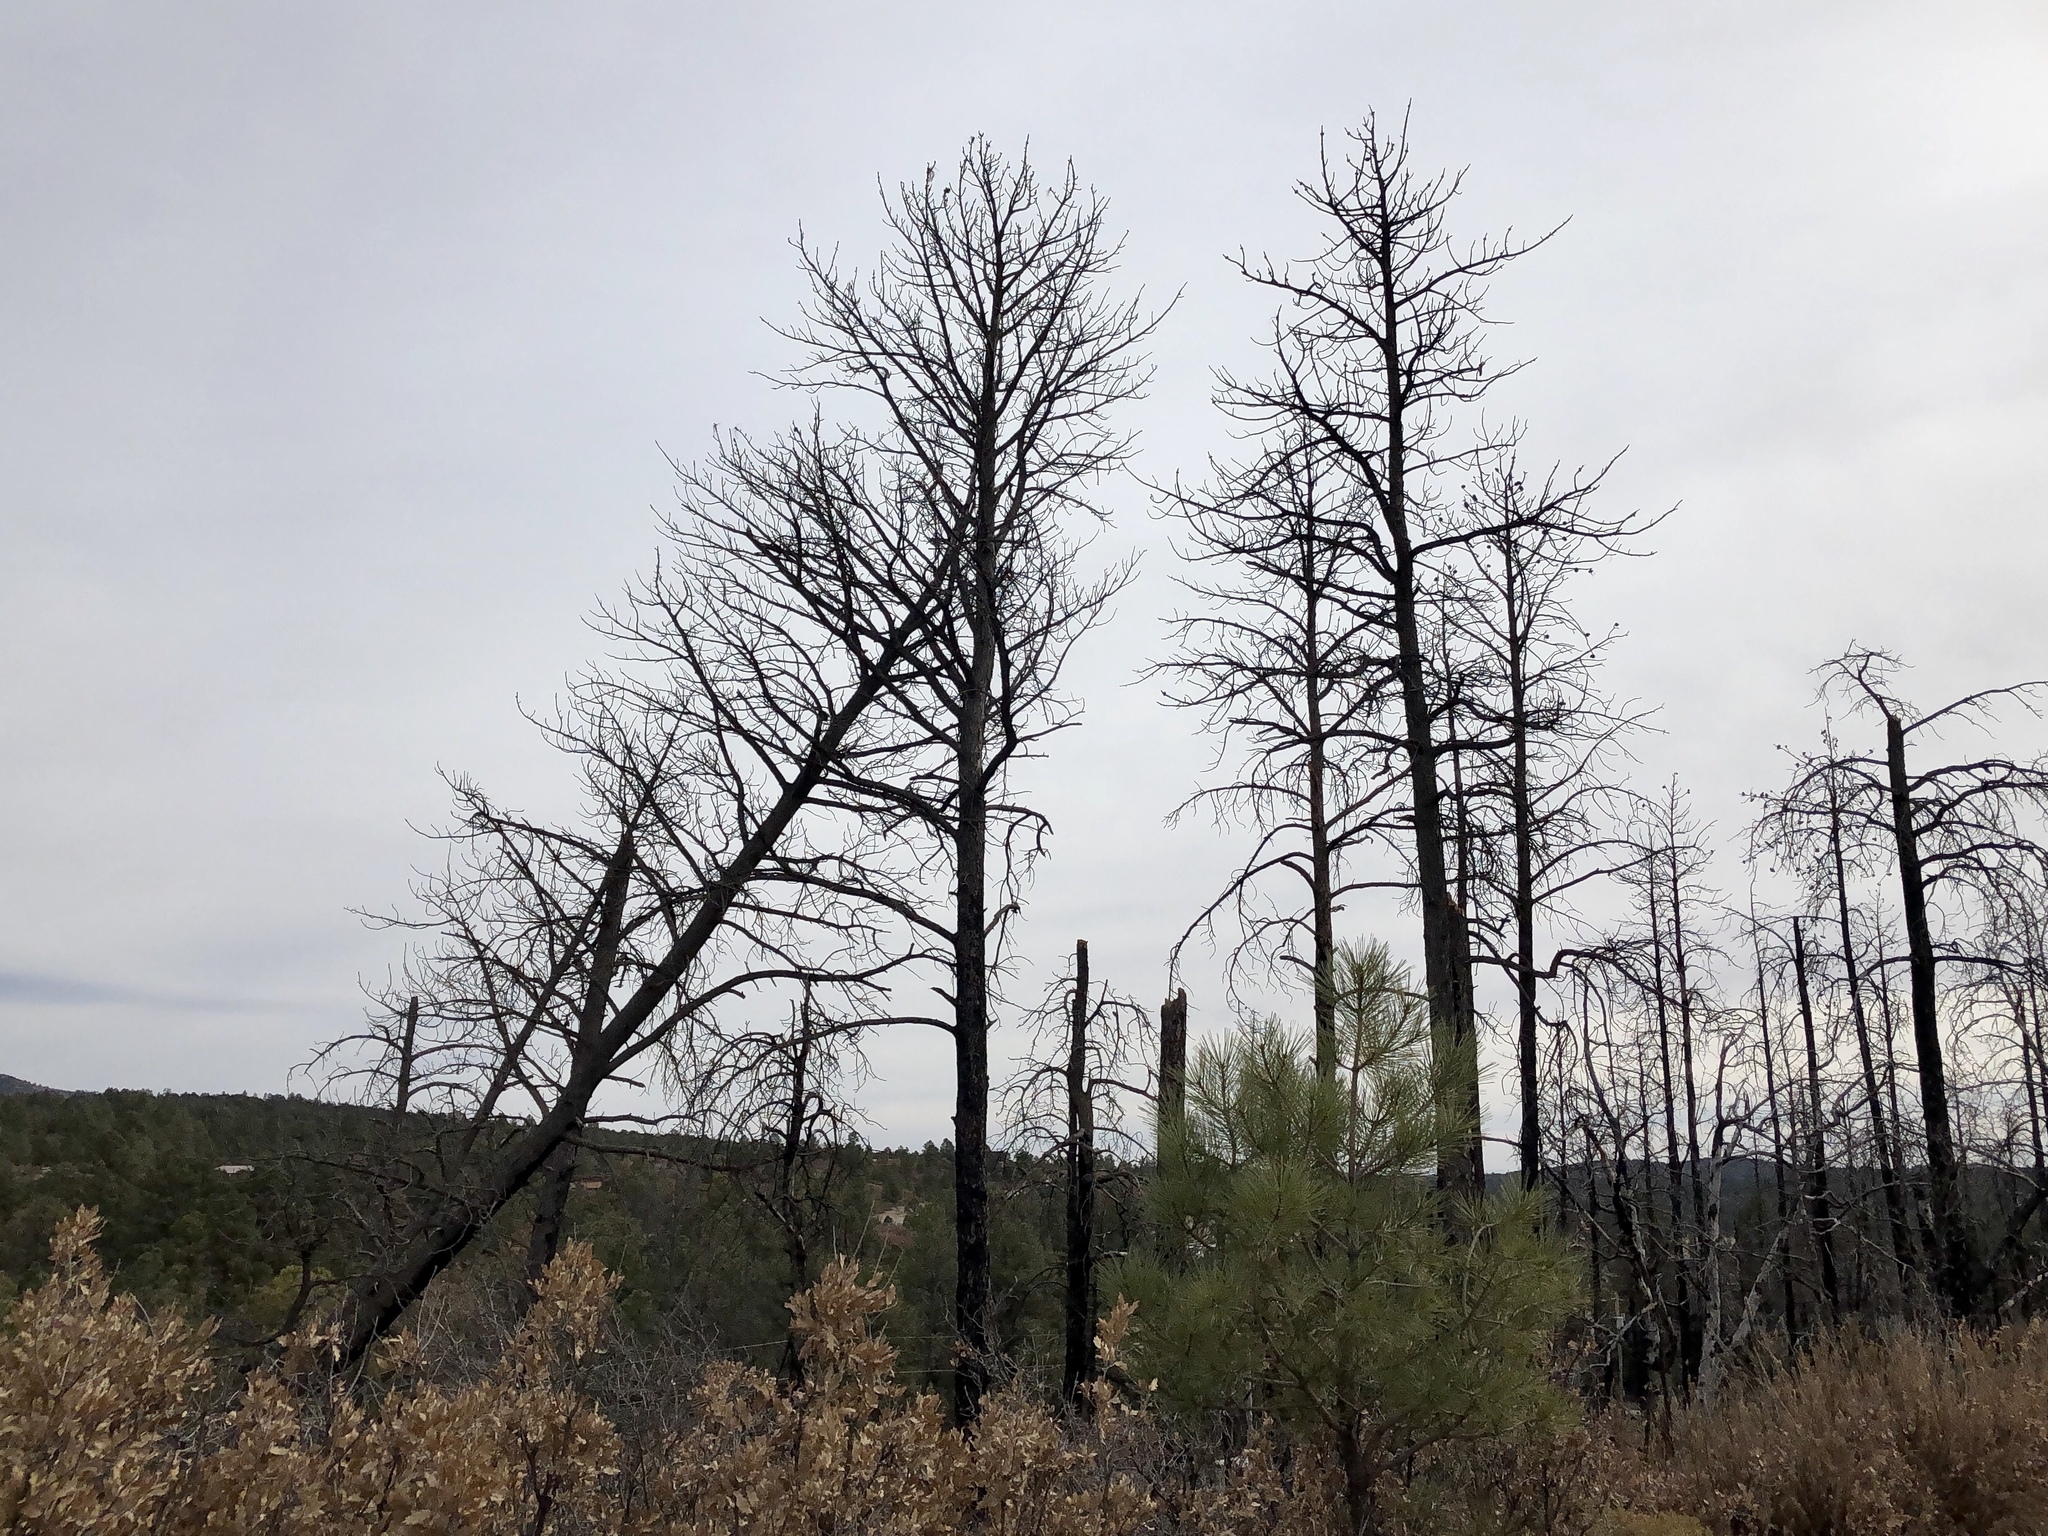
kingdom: Plantae
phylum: Tracheophyta
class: Pinopsida
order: Pinales
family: Pinaceae
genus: Pinus
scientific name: Pinus ponderosa
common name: Western yellow-pine
